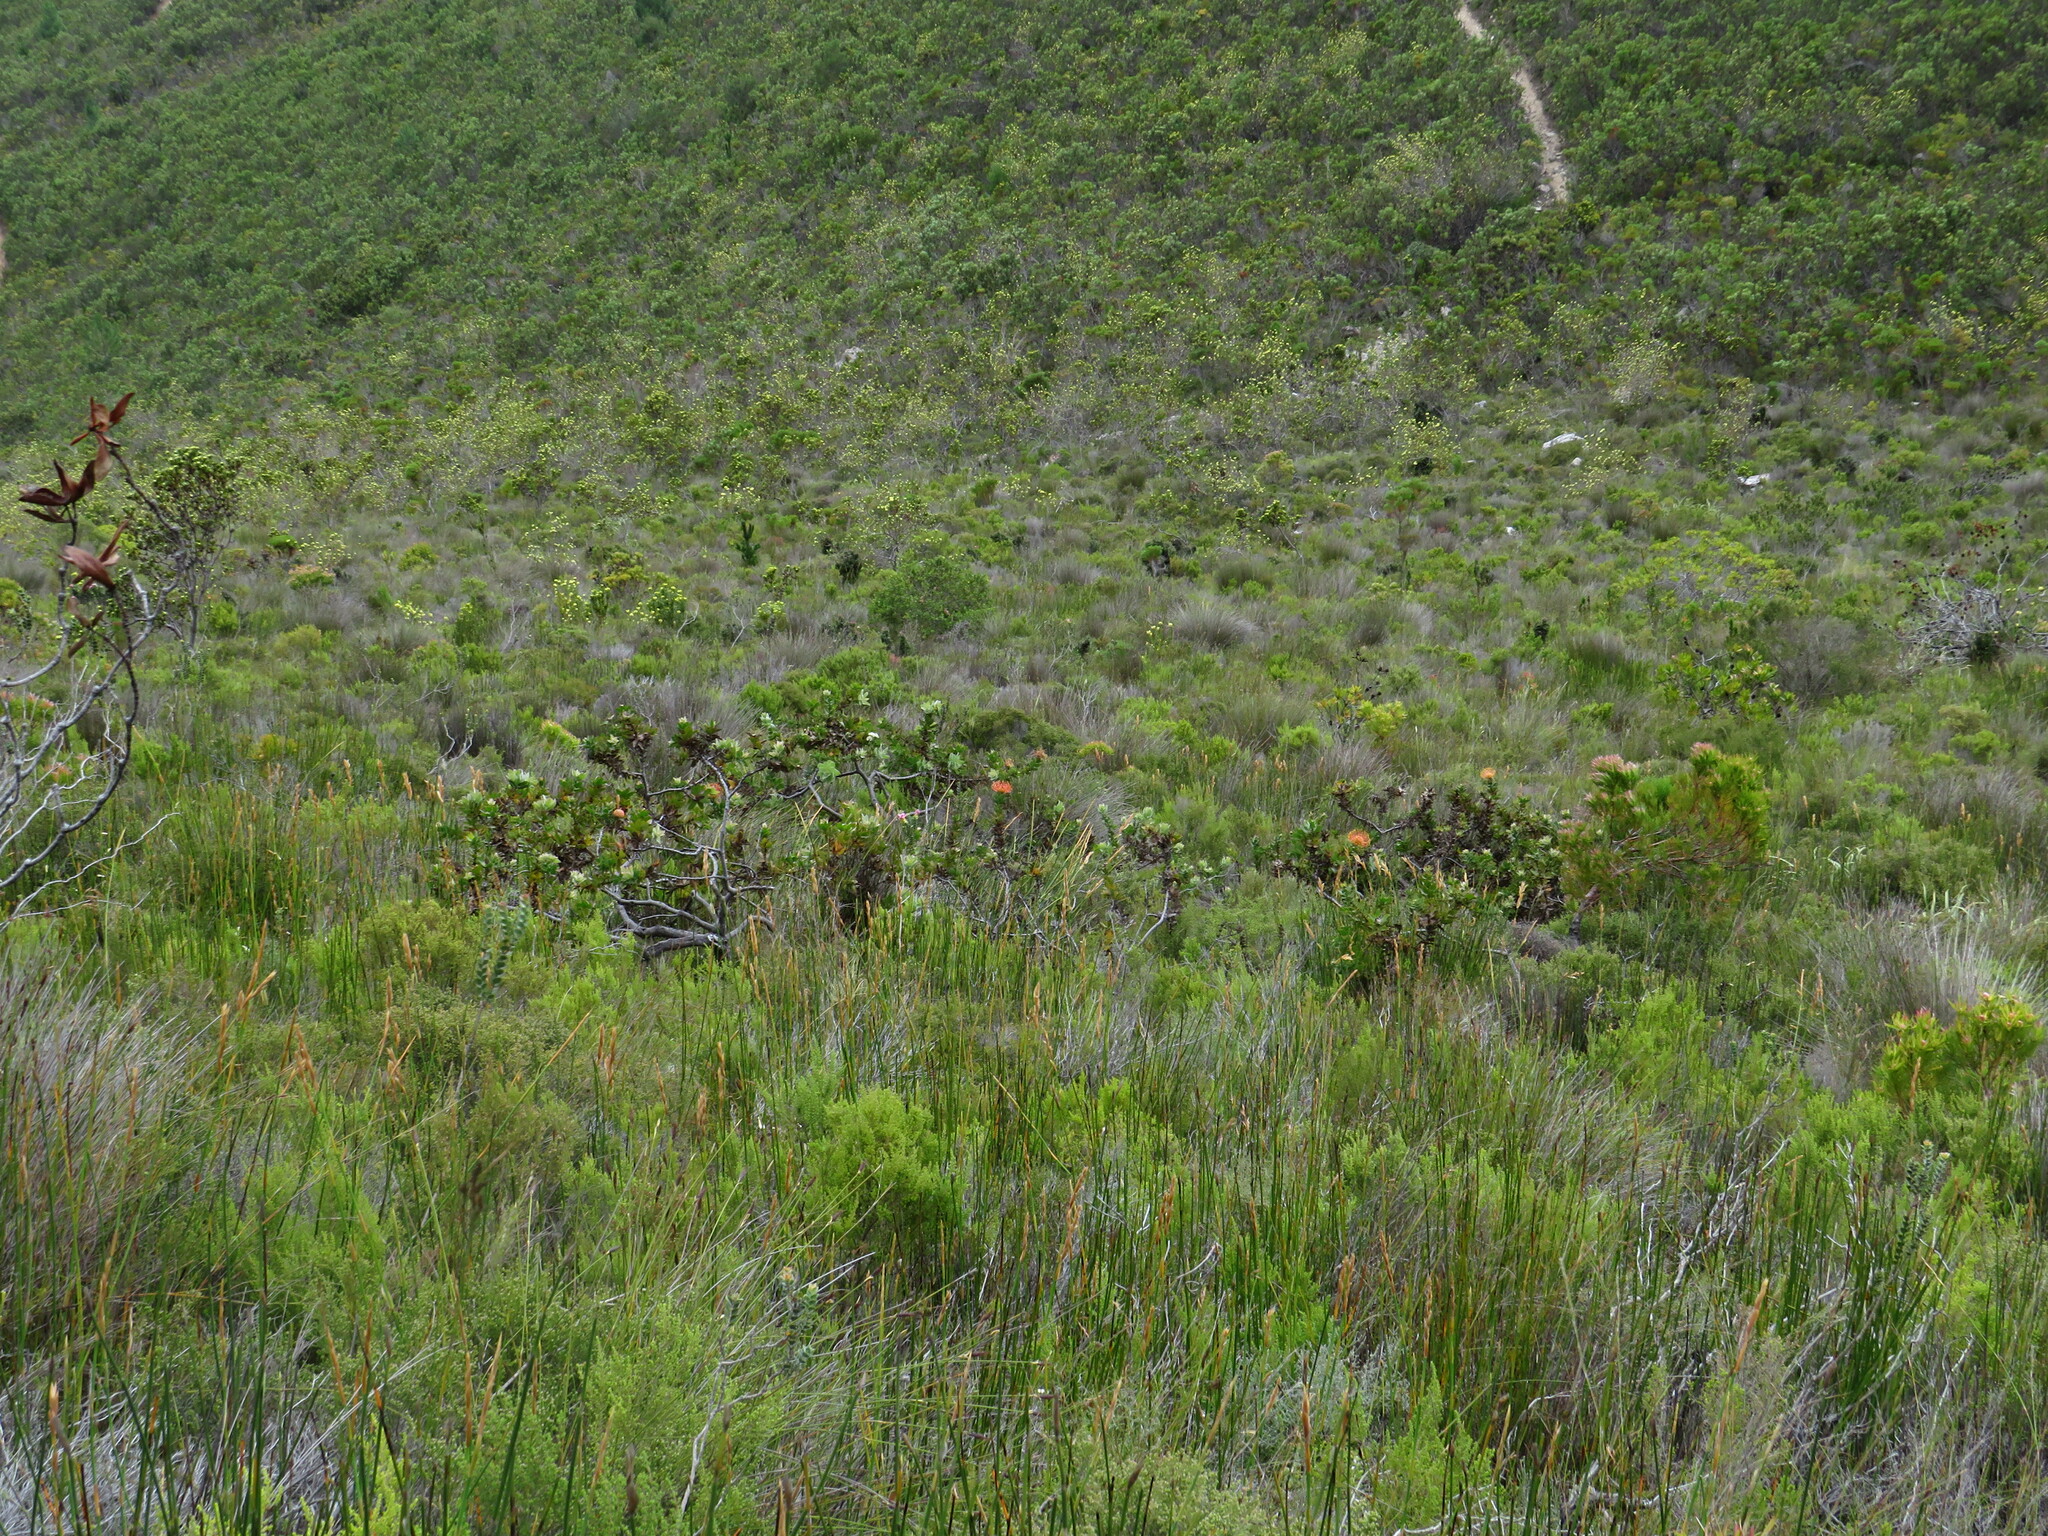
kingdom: Plantae
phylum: Tracheophyta
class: Magnoliopsida
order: Proteales
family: Proteaceae
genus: Leucospermum
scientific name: Leucospermum cordifolium
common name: Red pincushion-protea
